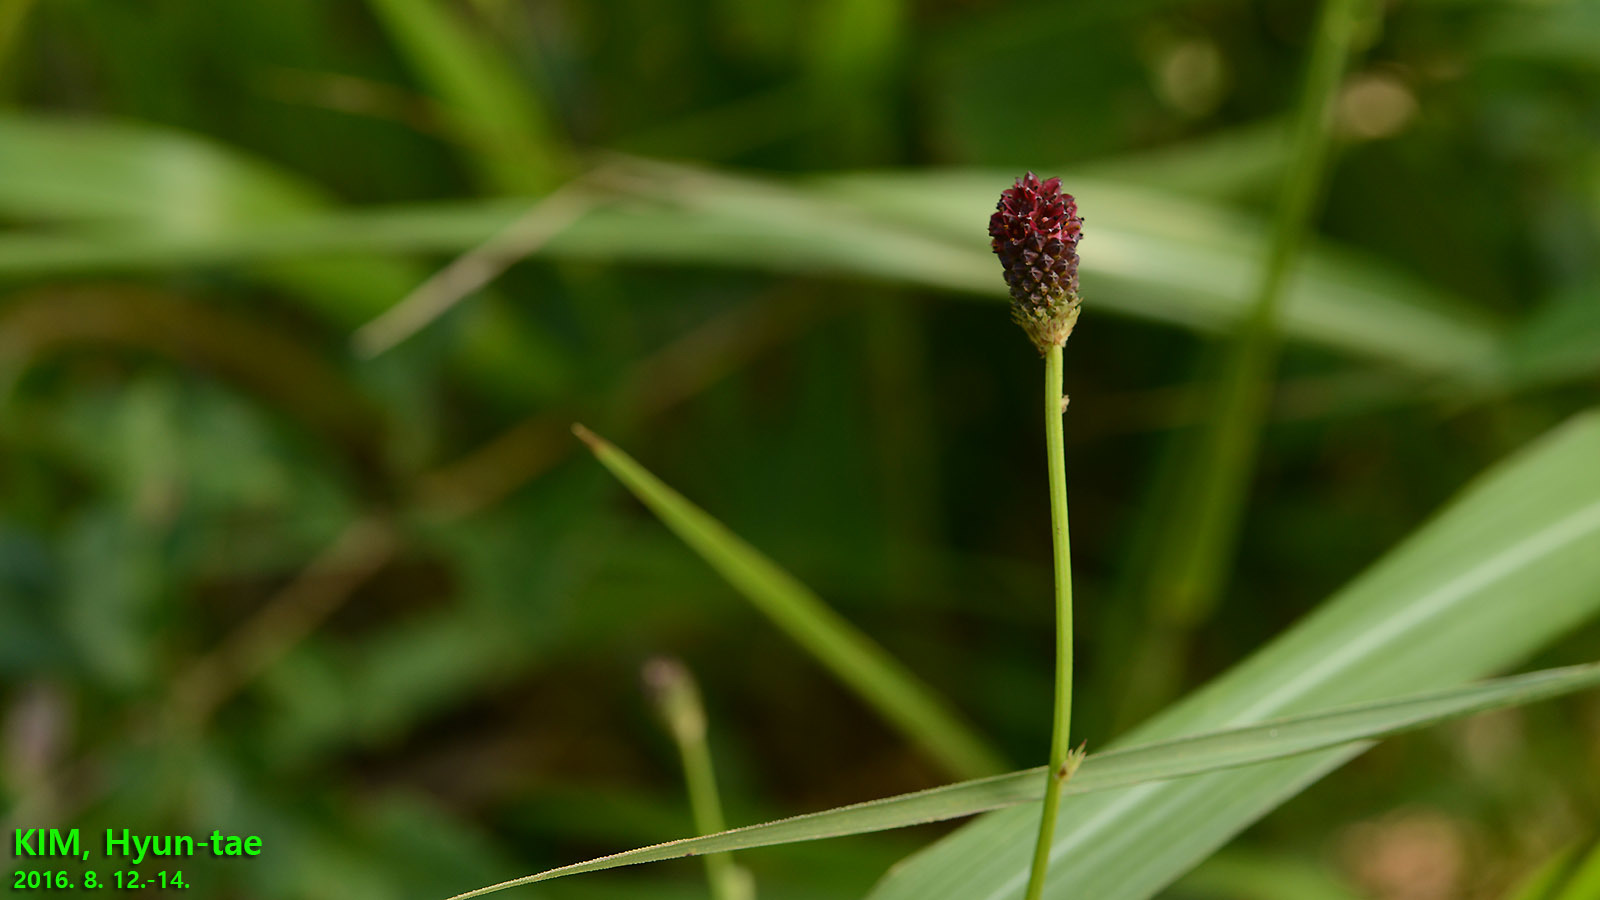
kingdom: Plantae
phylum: Tracheophyta
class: Magnoliopsida
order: Rosales
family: Rosaceae
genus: Sanguisorba
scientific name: Sanguisorba officinalis
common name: Great burnet
